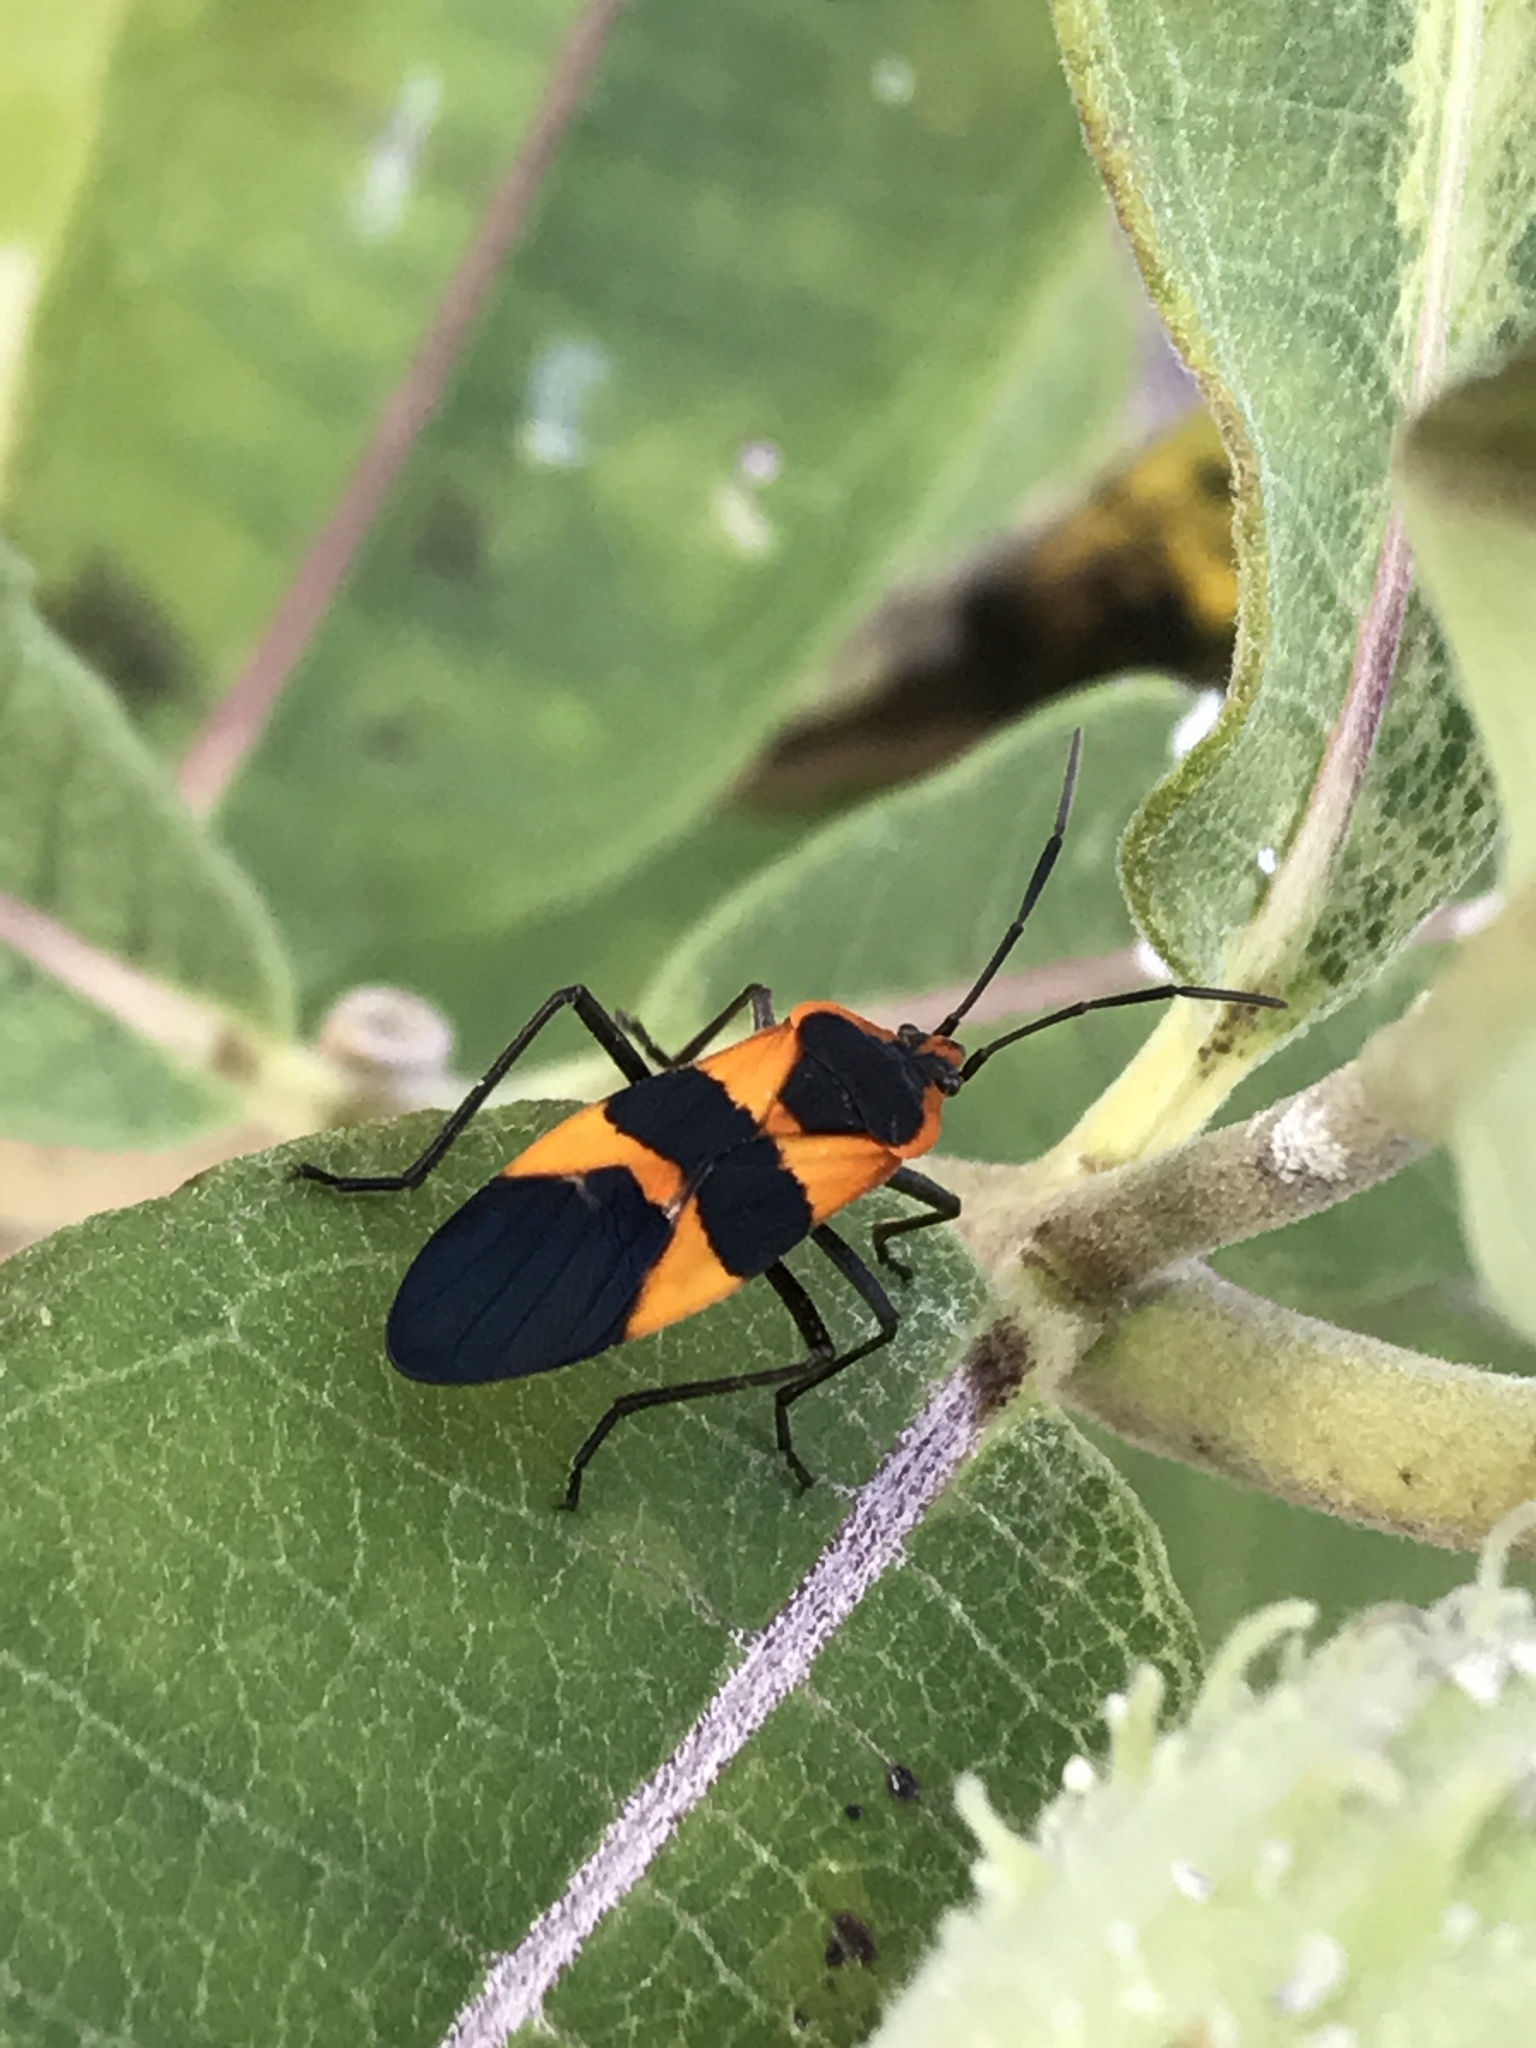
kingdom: Animalia
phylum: Arthropoda
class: Insecta
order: Hemiptera
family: Lygaeidae
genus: Oncopeltus
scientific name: Oncopeltus fasciatus
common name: Large milkweed bug
